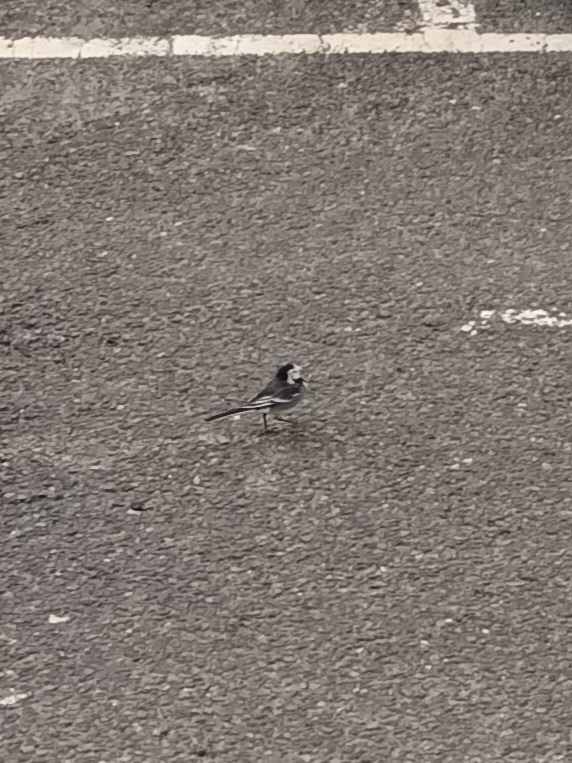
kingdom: Animalia
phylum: Chordata
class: Aves
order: Passeriformes
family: Motacillidae
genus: Motacilla
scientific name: Motacilla alba
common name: White wagtail
